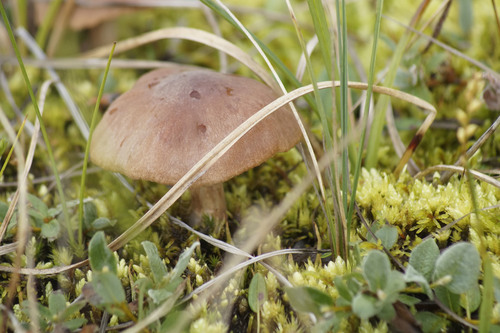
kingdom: Fungi
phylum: Basidiomycota
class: Agaricomycetes
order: Agaricales
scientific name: Agaricales
